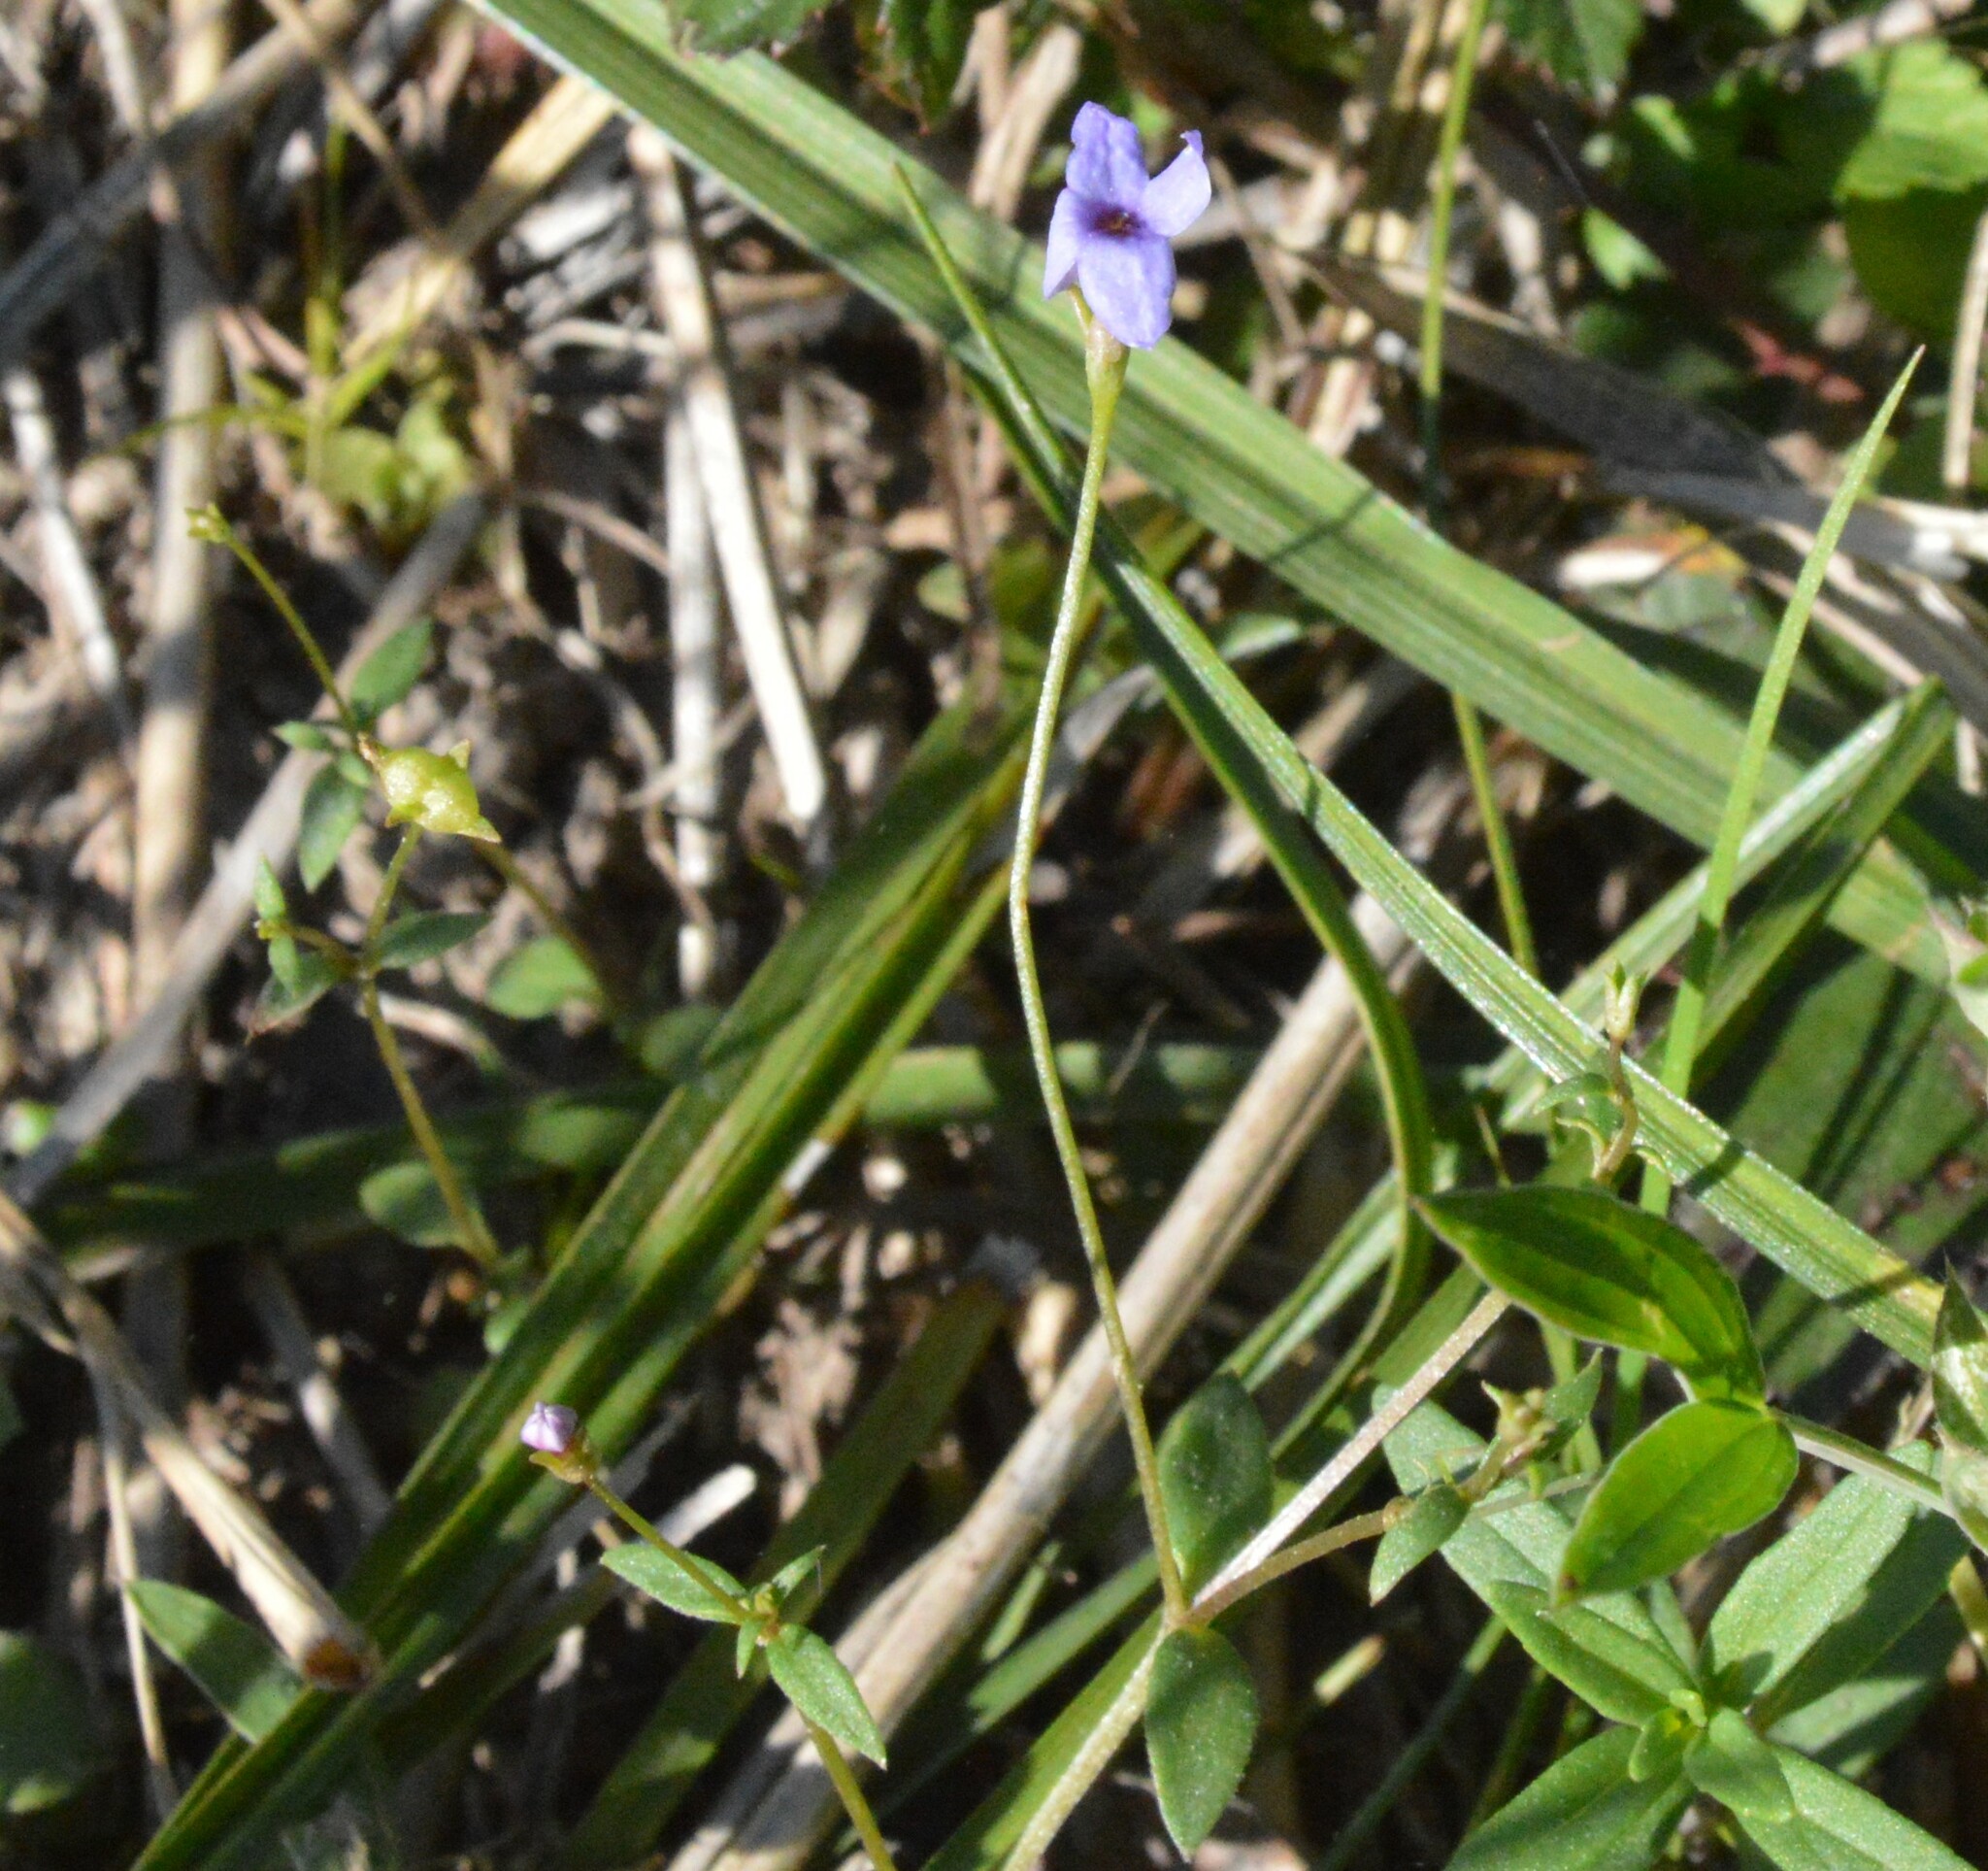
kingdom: Plantae
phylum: Tracheophyta
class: Magnoliopsida
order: Gentianales
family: Rubiaceae
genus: Houstonia
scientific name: Houstonia pusilla
